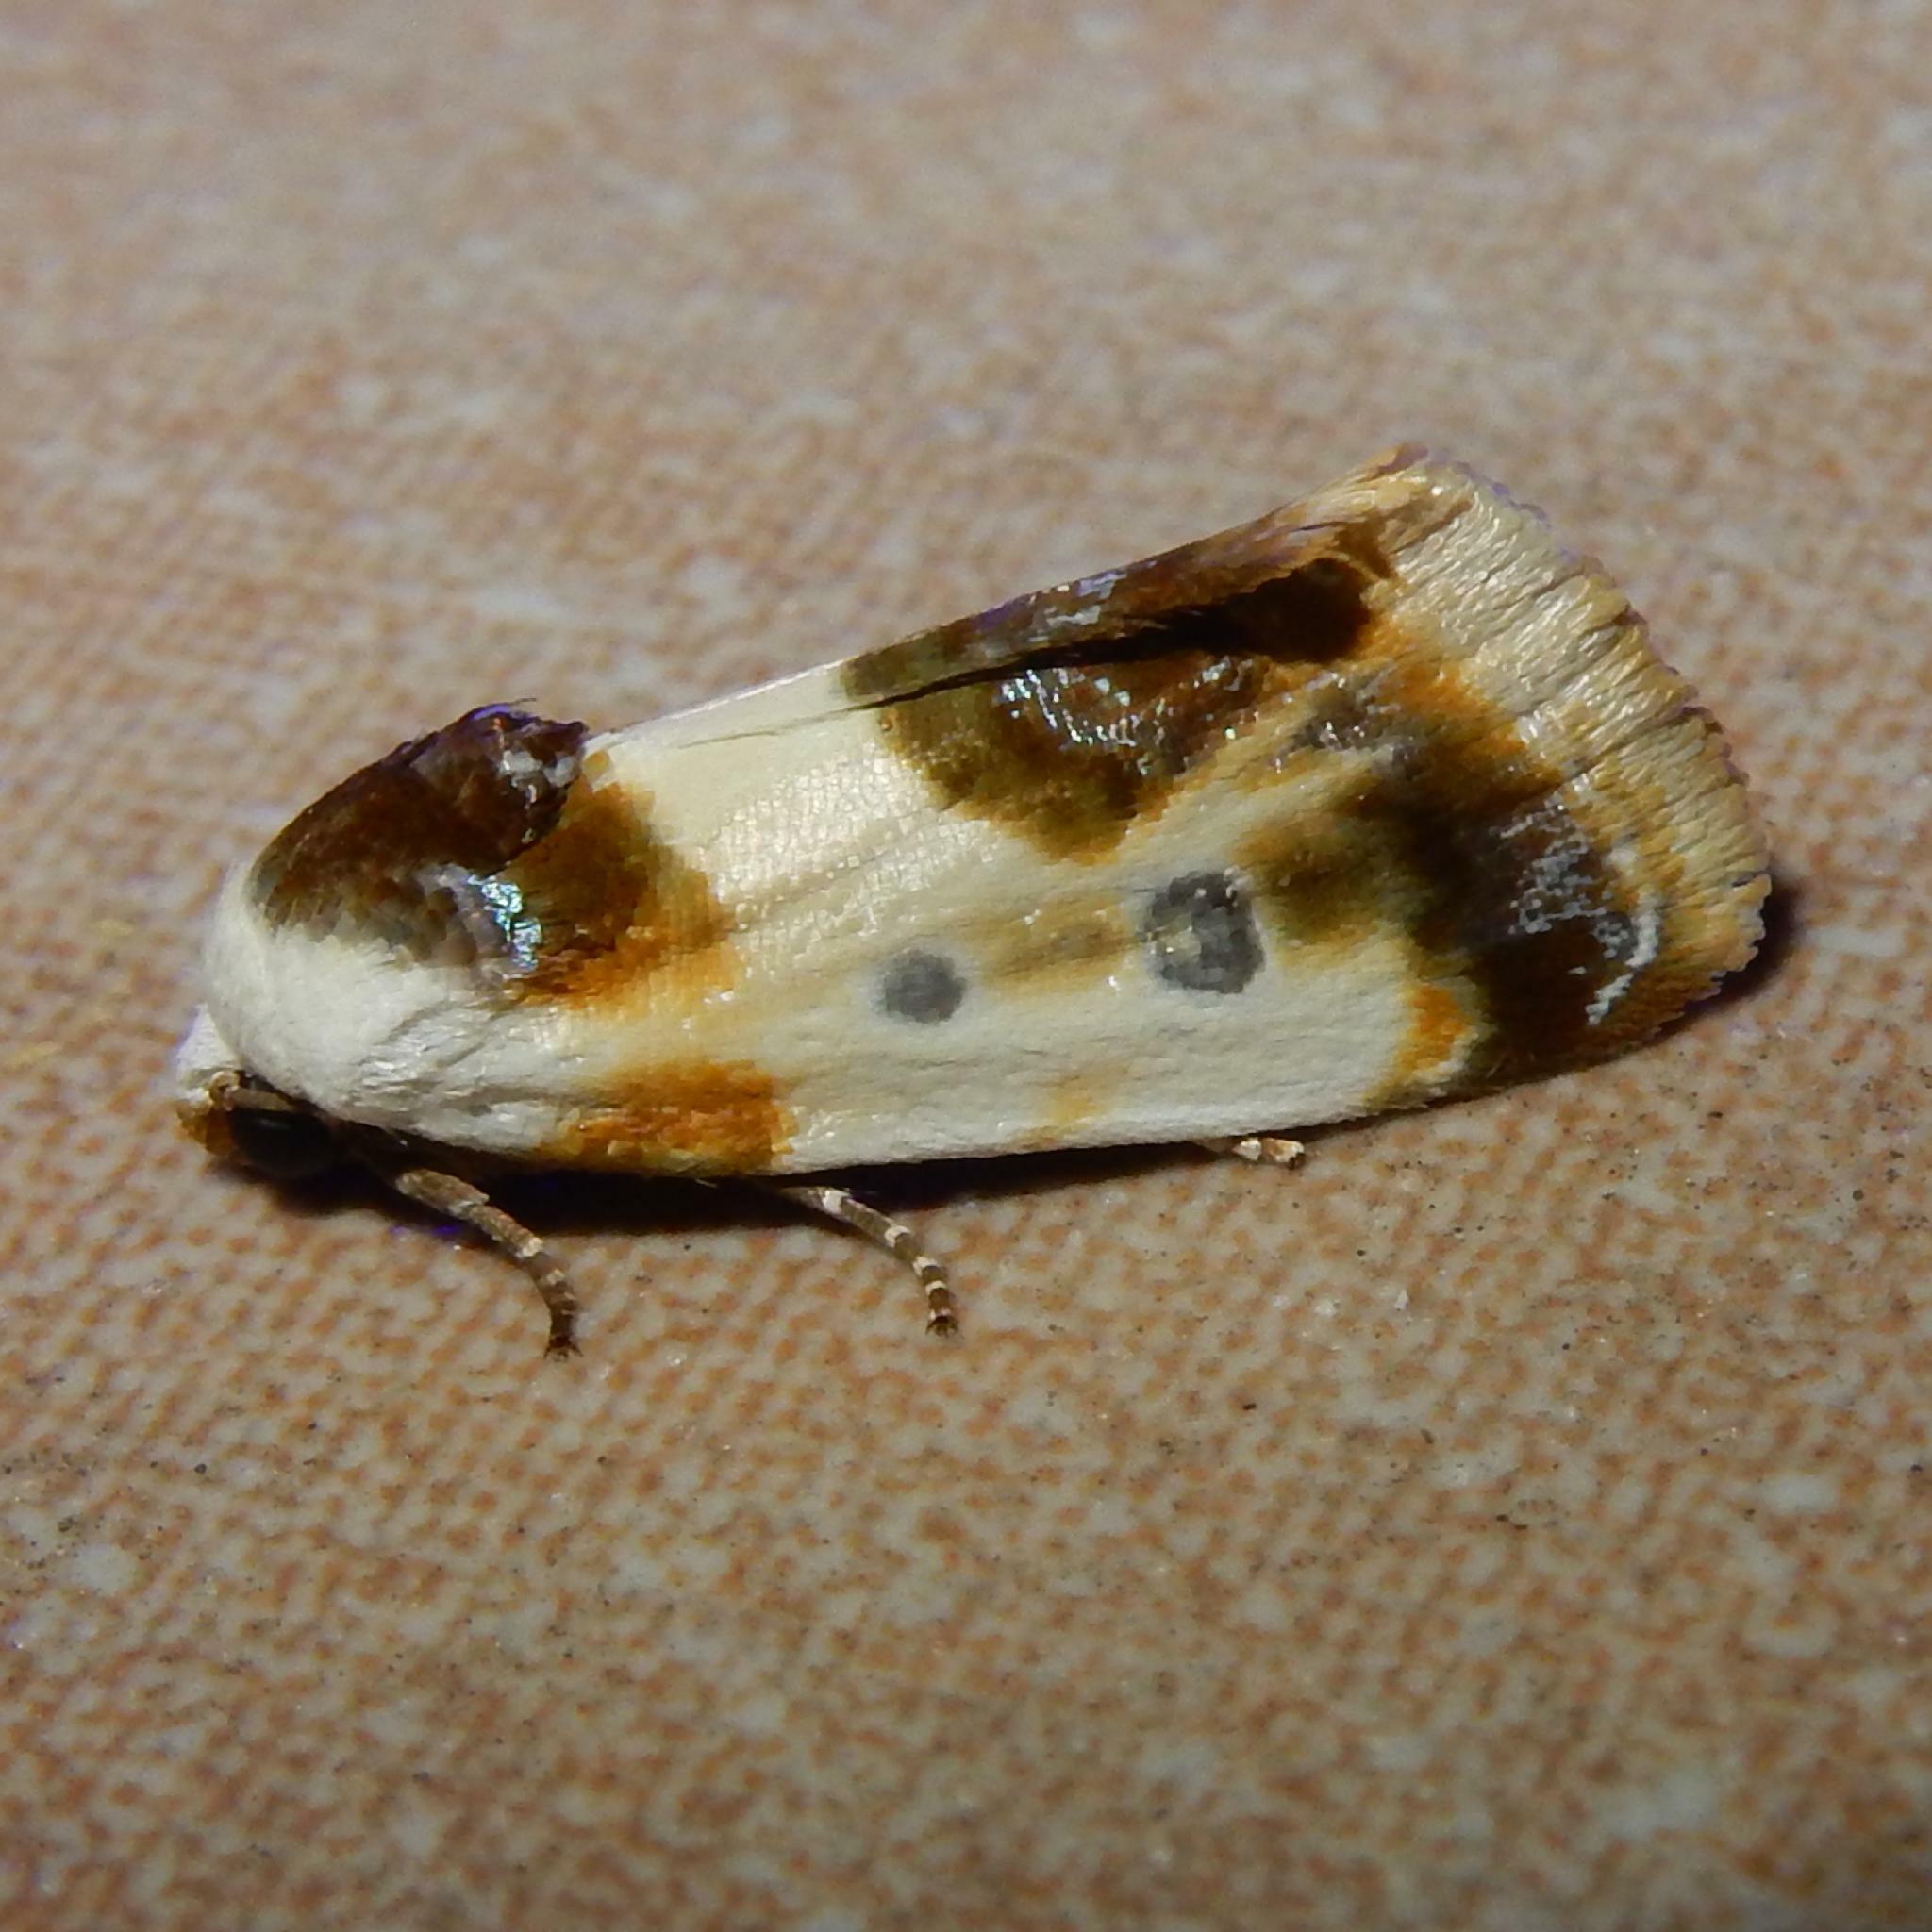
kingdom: Animalia
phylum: Arthropoda
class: Insecta
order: Lepidoptera
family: Noctuidae
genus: Acontia
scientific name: Acontia natalis
